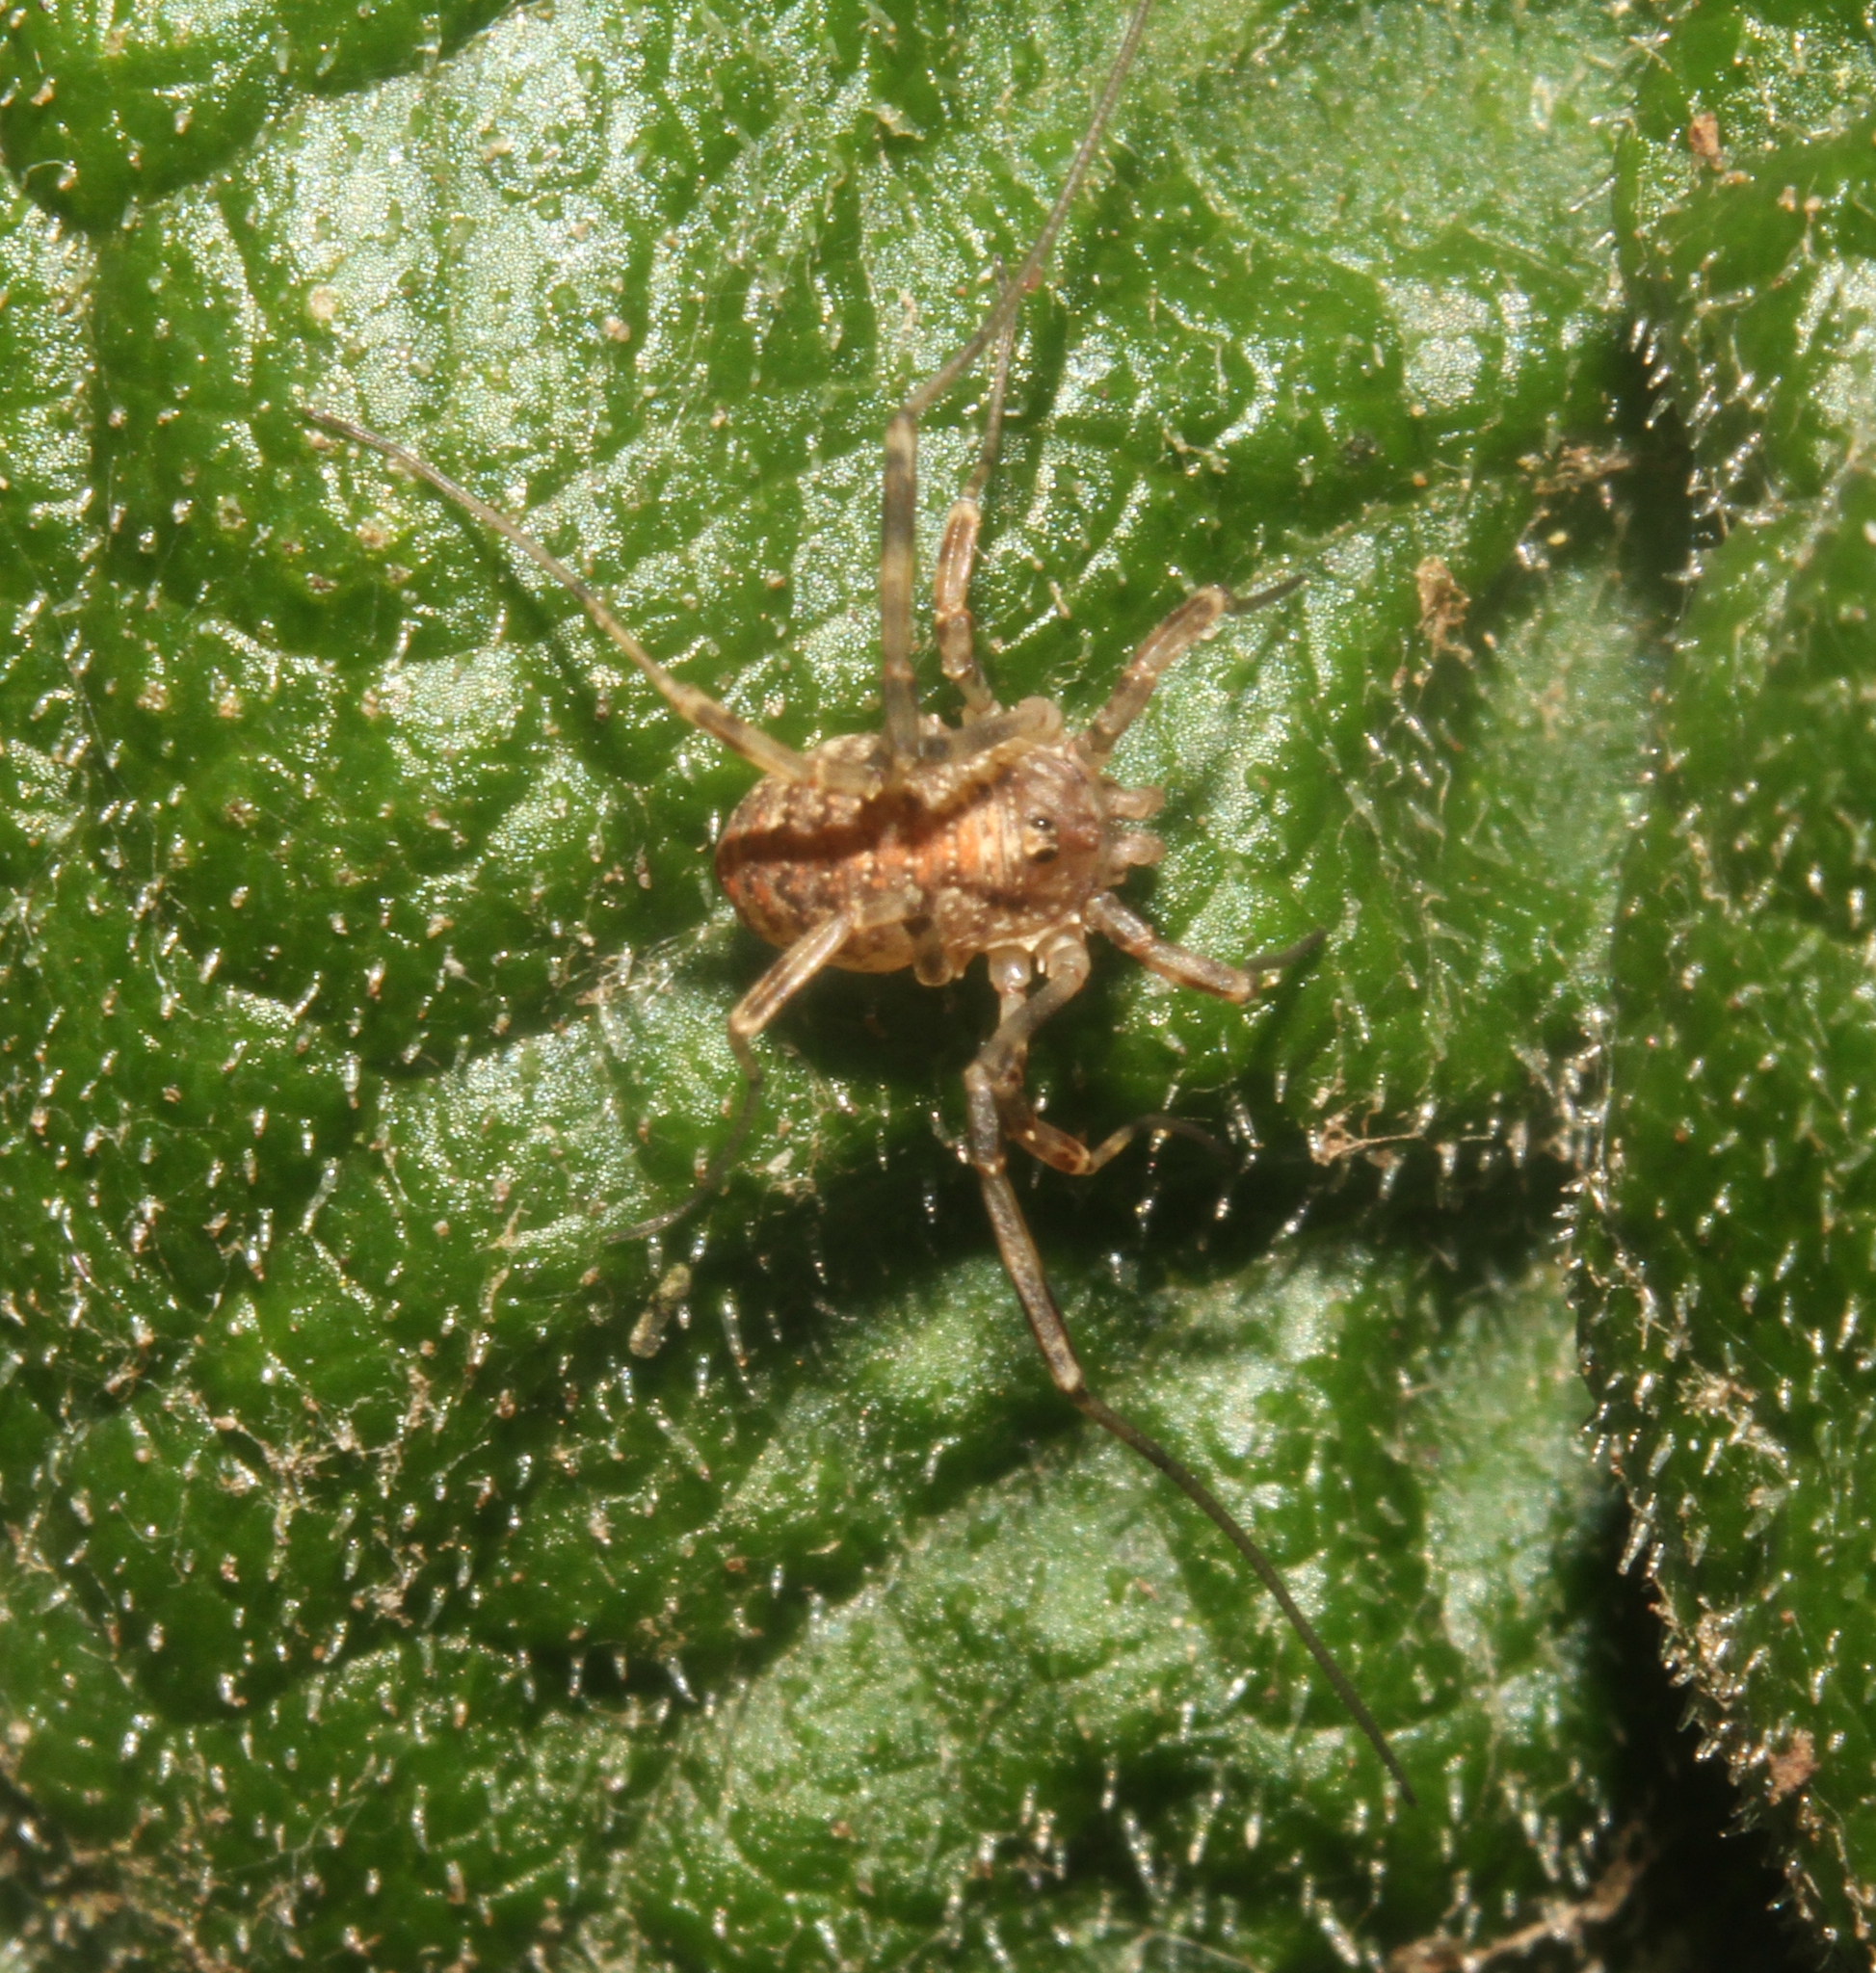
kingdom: Animalia
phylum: Arthropoda
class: Arachnida
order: Opiliones
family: Phalangiidae
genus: Paroligolophus
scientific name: Paroligolophus agrestis
